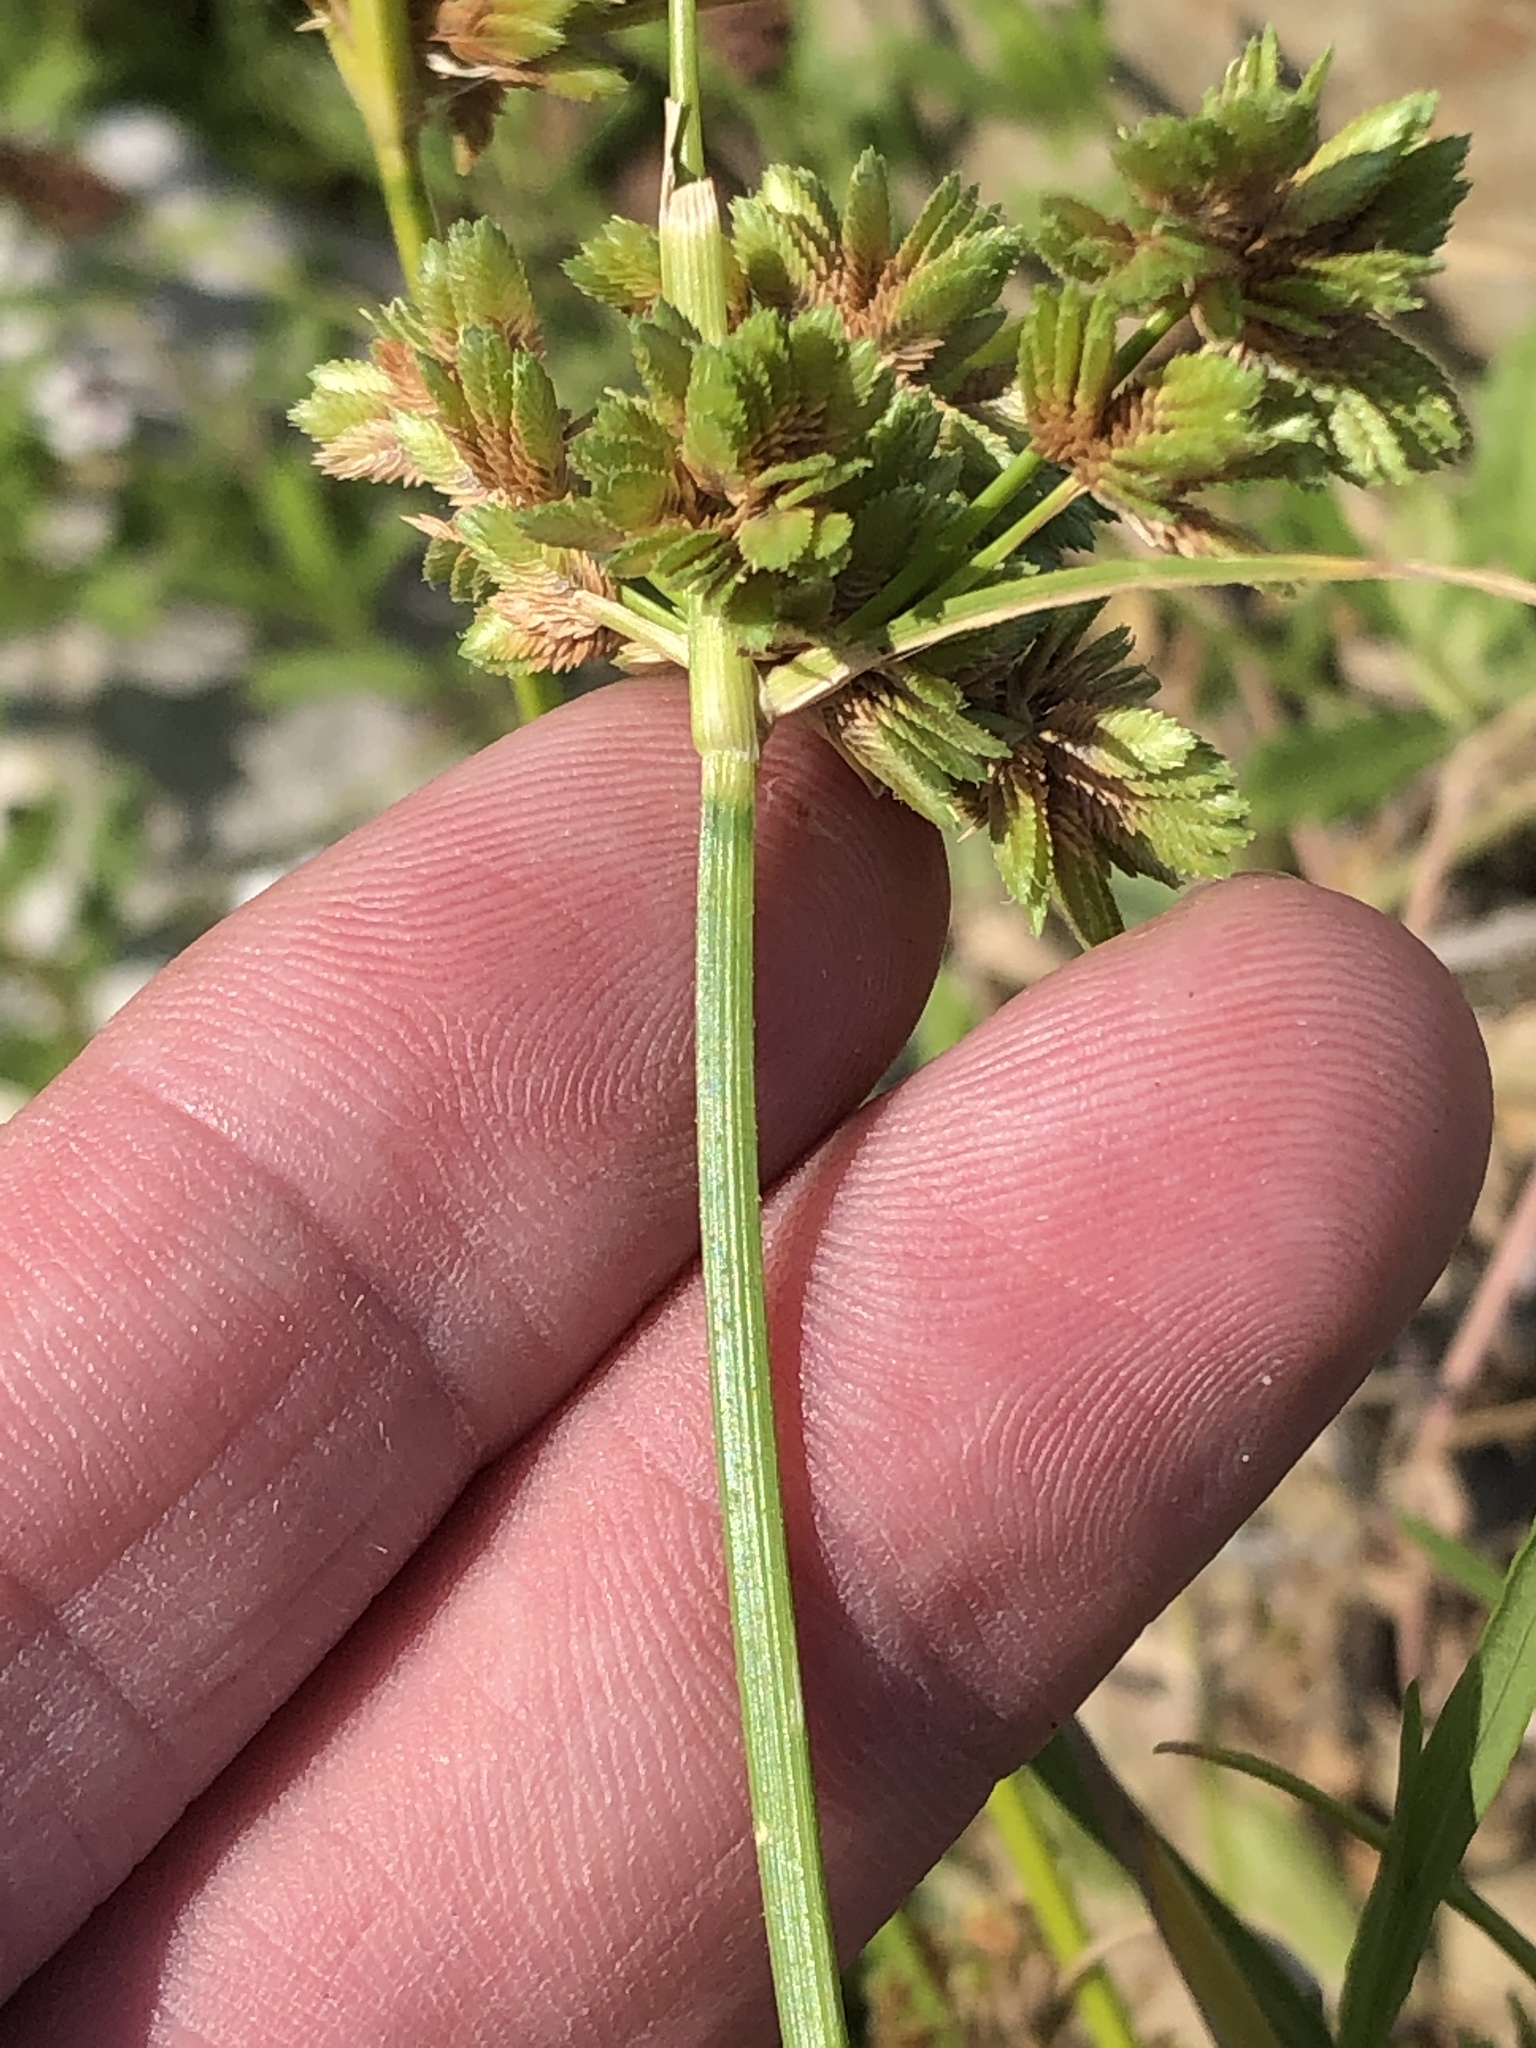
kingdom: Plantae
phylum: Tracheophyta
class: Liliopsida
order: Poales
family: Cyperaceae
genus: Cyperus
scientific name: Cyperus surinamensis
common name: Tropical flat sedge
